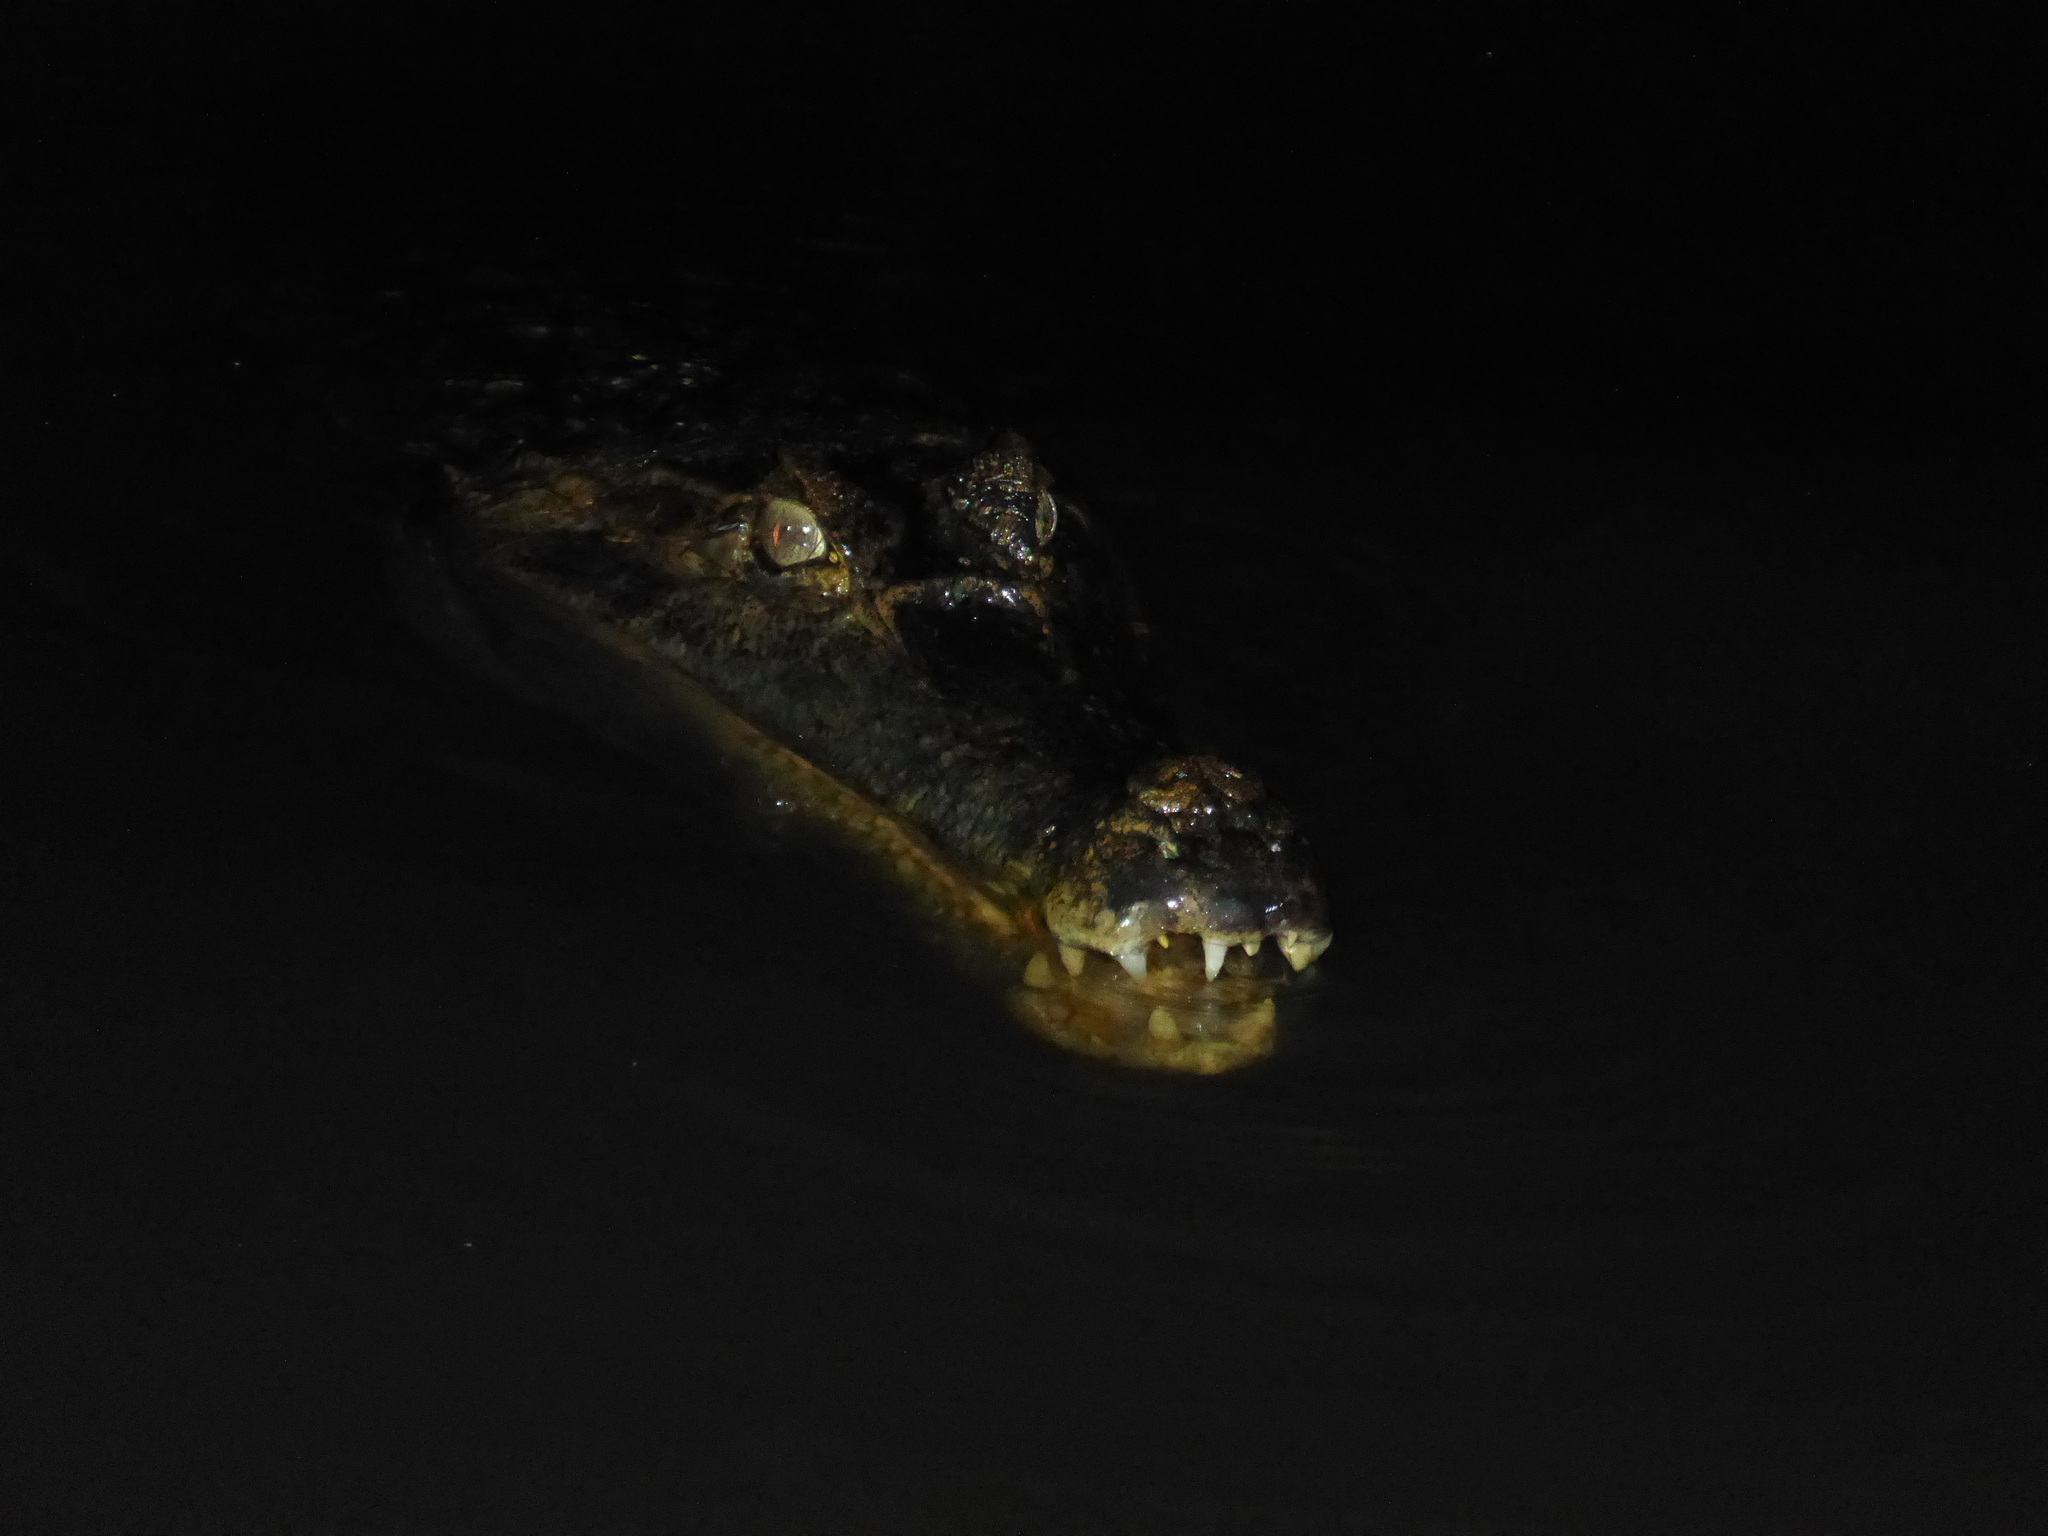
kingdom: Animalia
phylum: Chordata
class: Crocodylia
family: Alligatoridae
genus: Caiman
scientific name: Caiman crocodilus
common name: Common caiman
